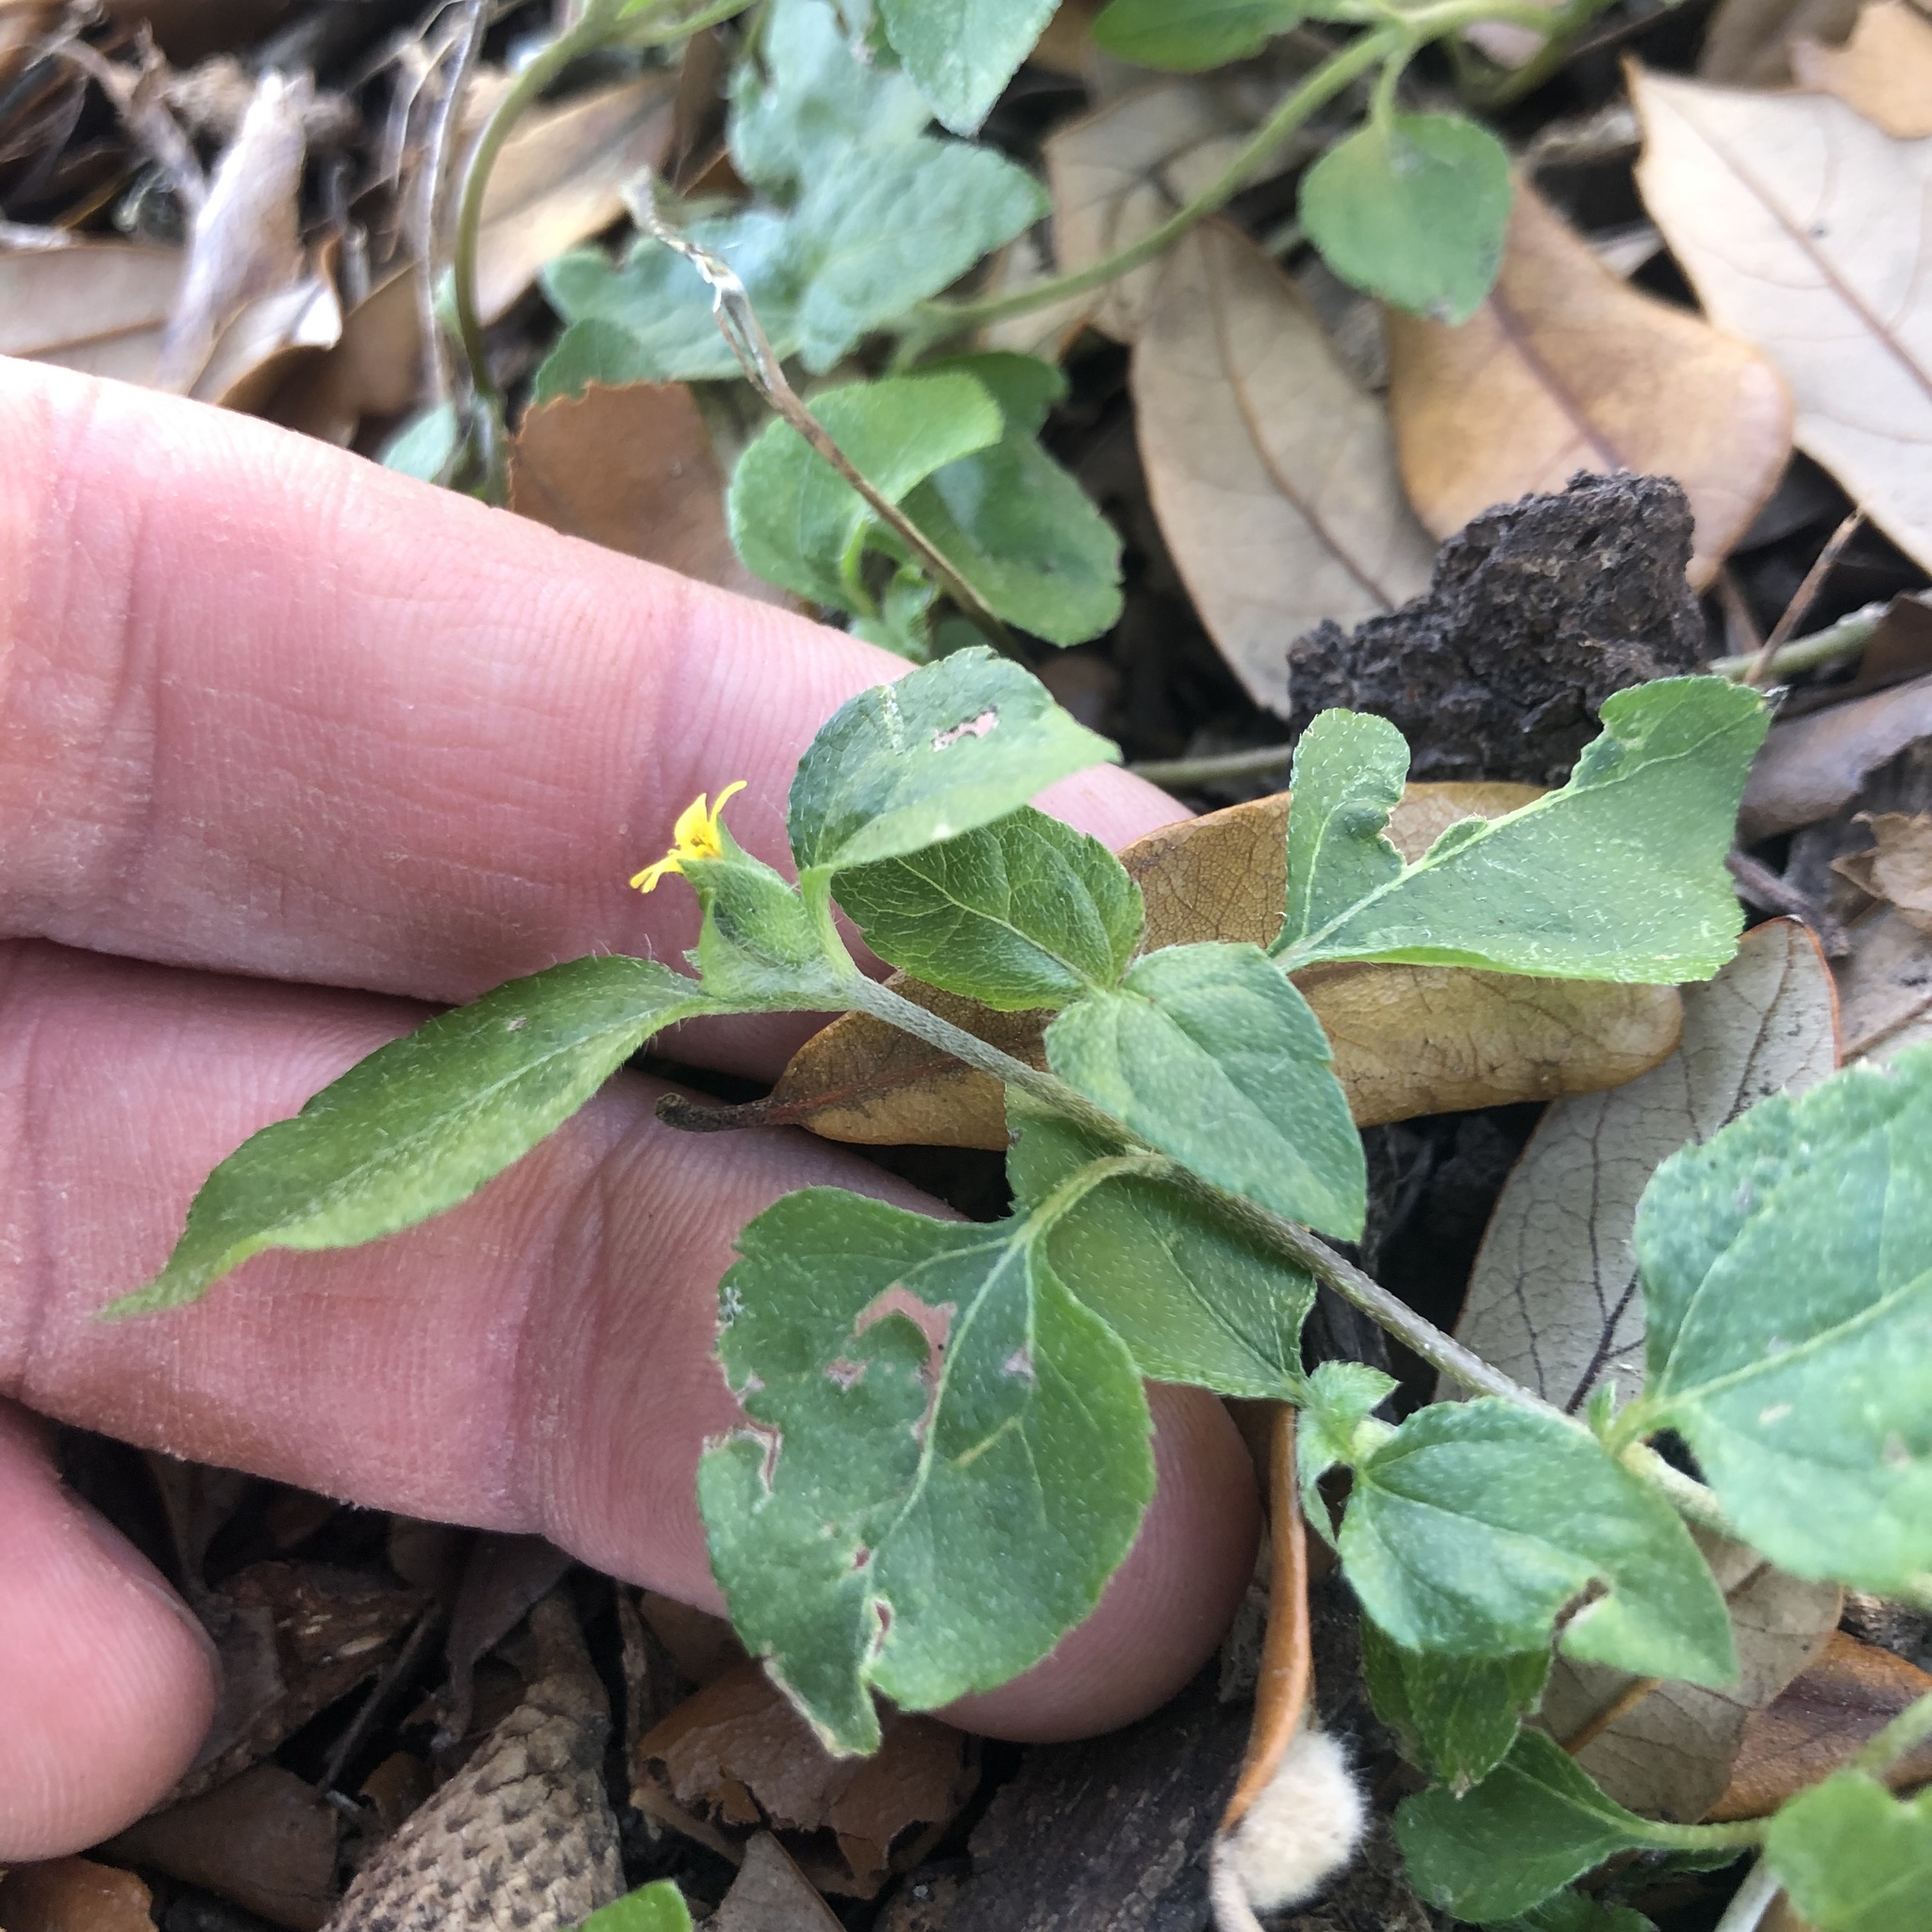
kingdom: Plantae
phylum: Tracheophyta
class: Magnoliopsida
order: Asterales
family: Asteraceae
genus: Calyptocarpus
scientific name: Calyptocarpus vialis
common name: Straggler daisy
